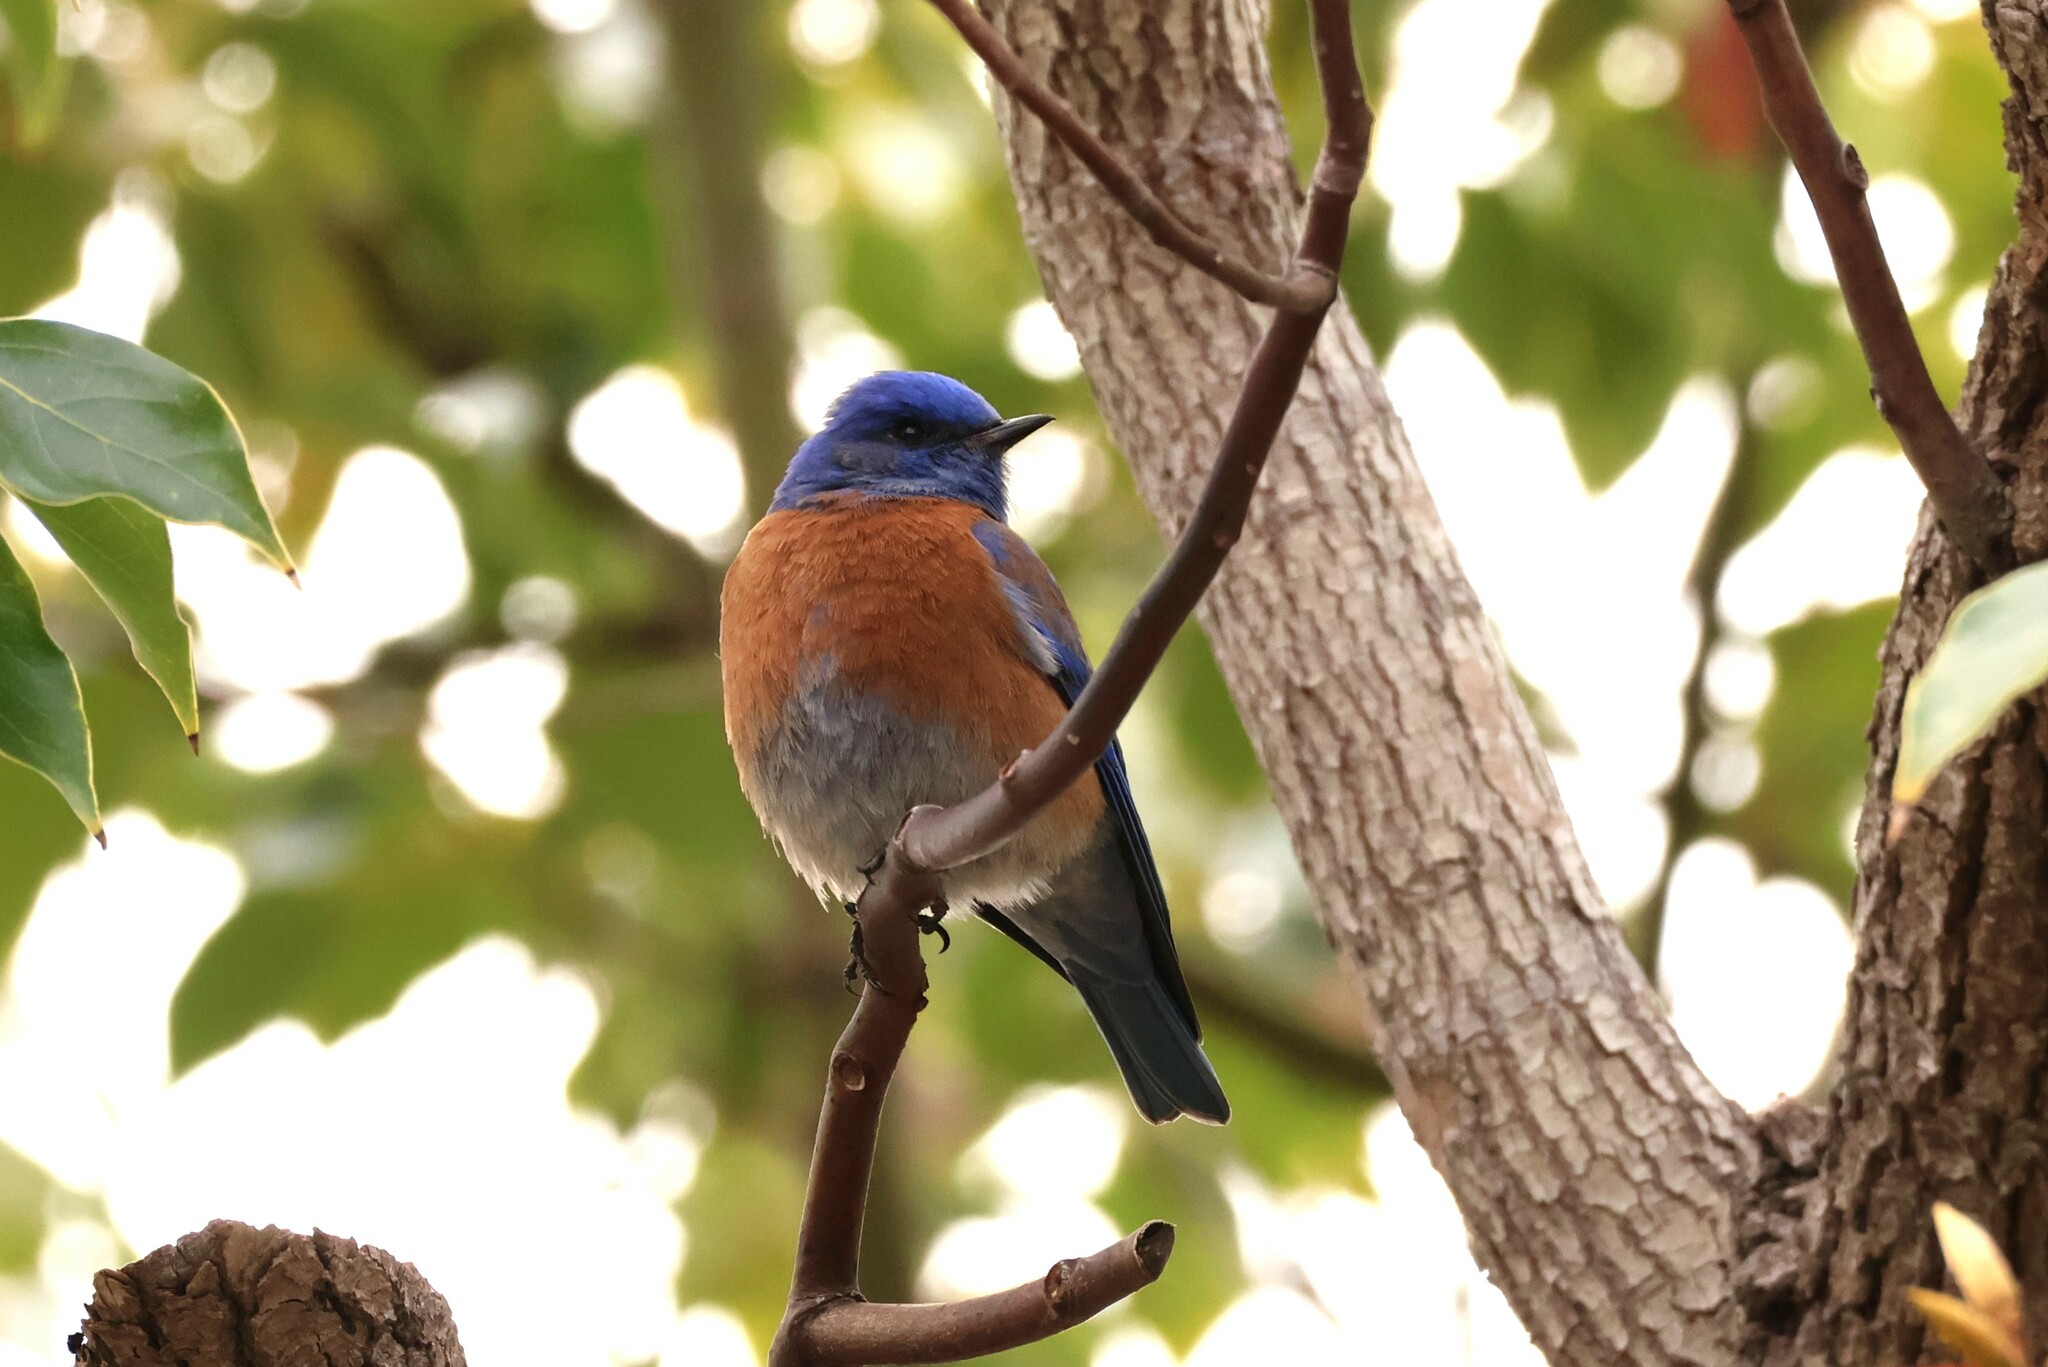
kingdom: Animalia
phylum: Chordata
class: Aves
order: Passeriformes
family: Turdidae
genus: Sialia
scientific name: Sialia mexicana
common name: Western bluebird
